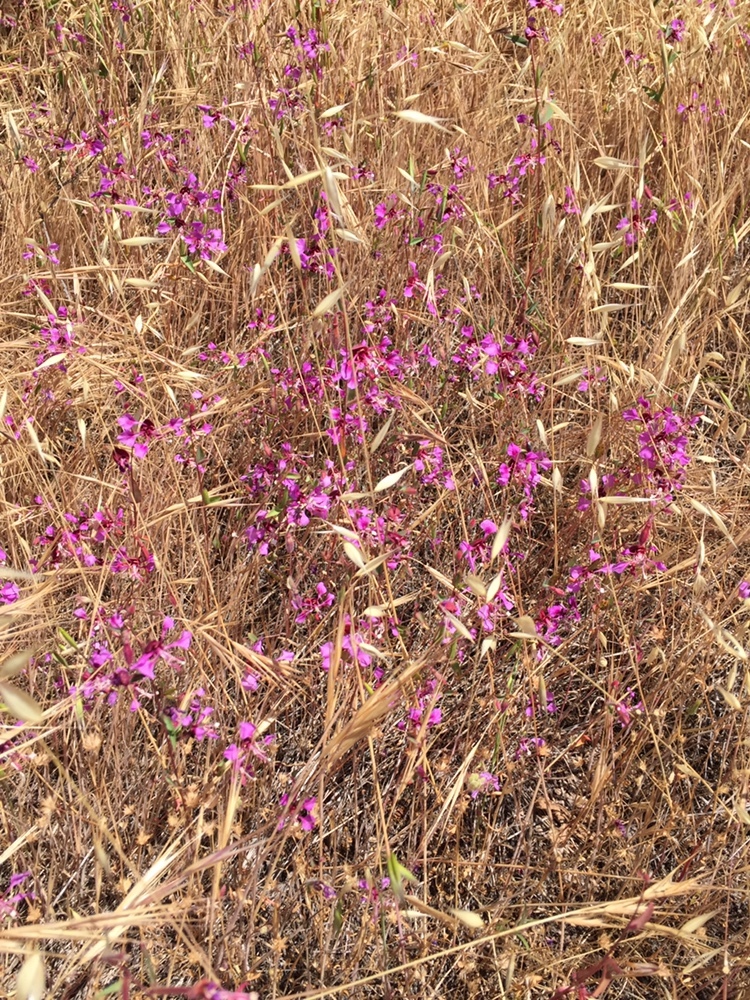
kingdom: Plantae
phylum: Tracheophyta
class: Magnoliopsida
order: Myrtales
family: Onagraceae
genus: Clarkia
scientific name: Clarkia unguiculata
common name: Clarkia
